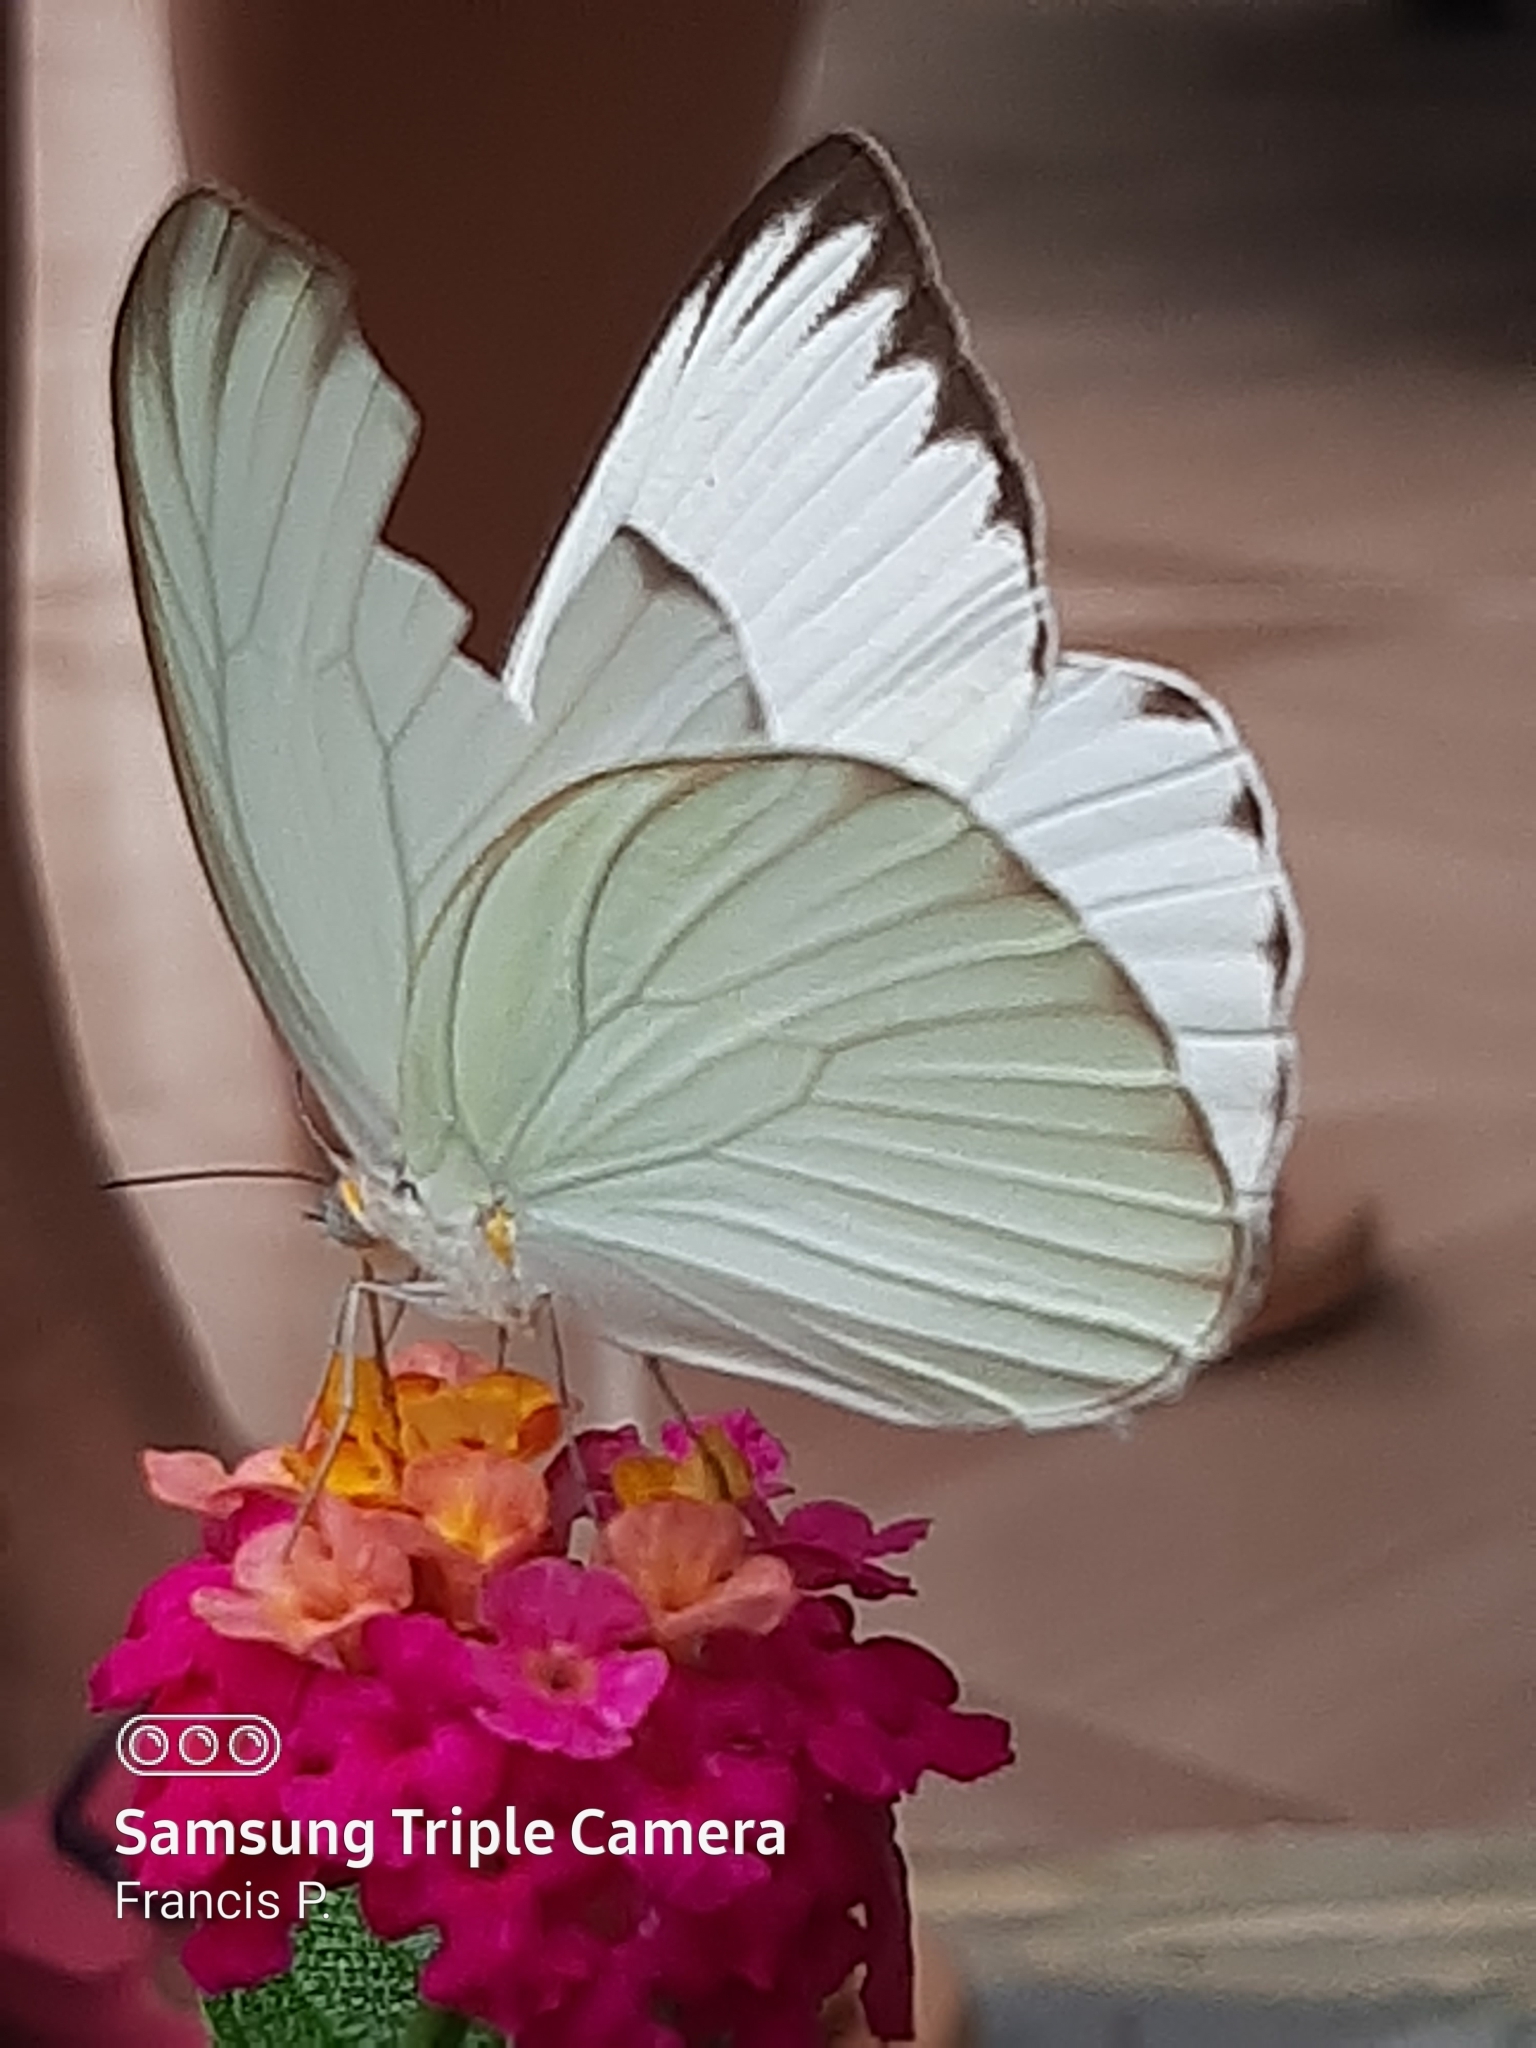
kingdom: Animalia
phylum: Arthropoda
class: Insecta
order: Lepidoptera
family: Pieridae
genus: Ascia
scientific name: Ascia monuste
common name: Great southern white
